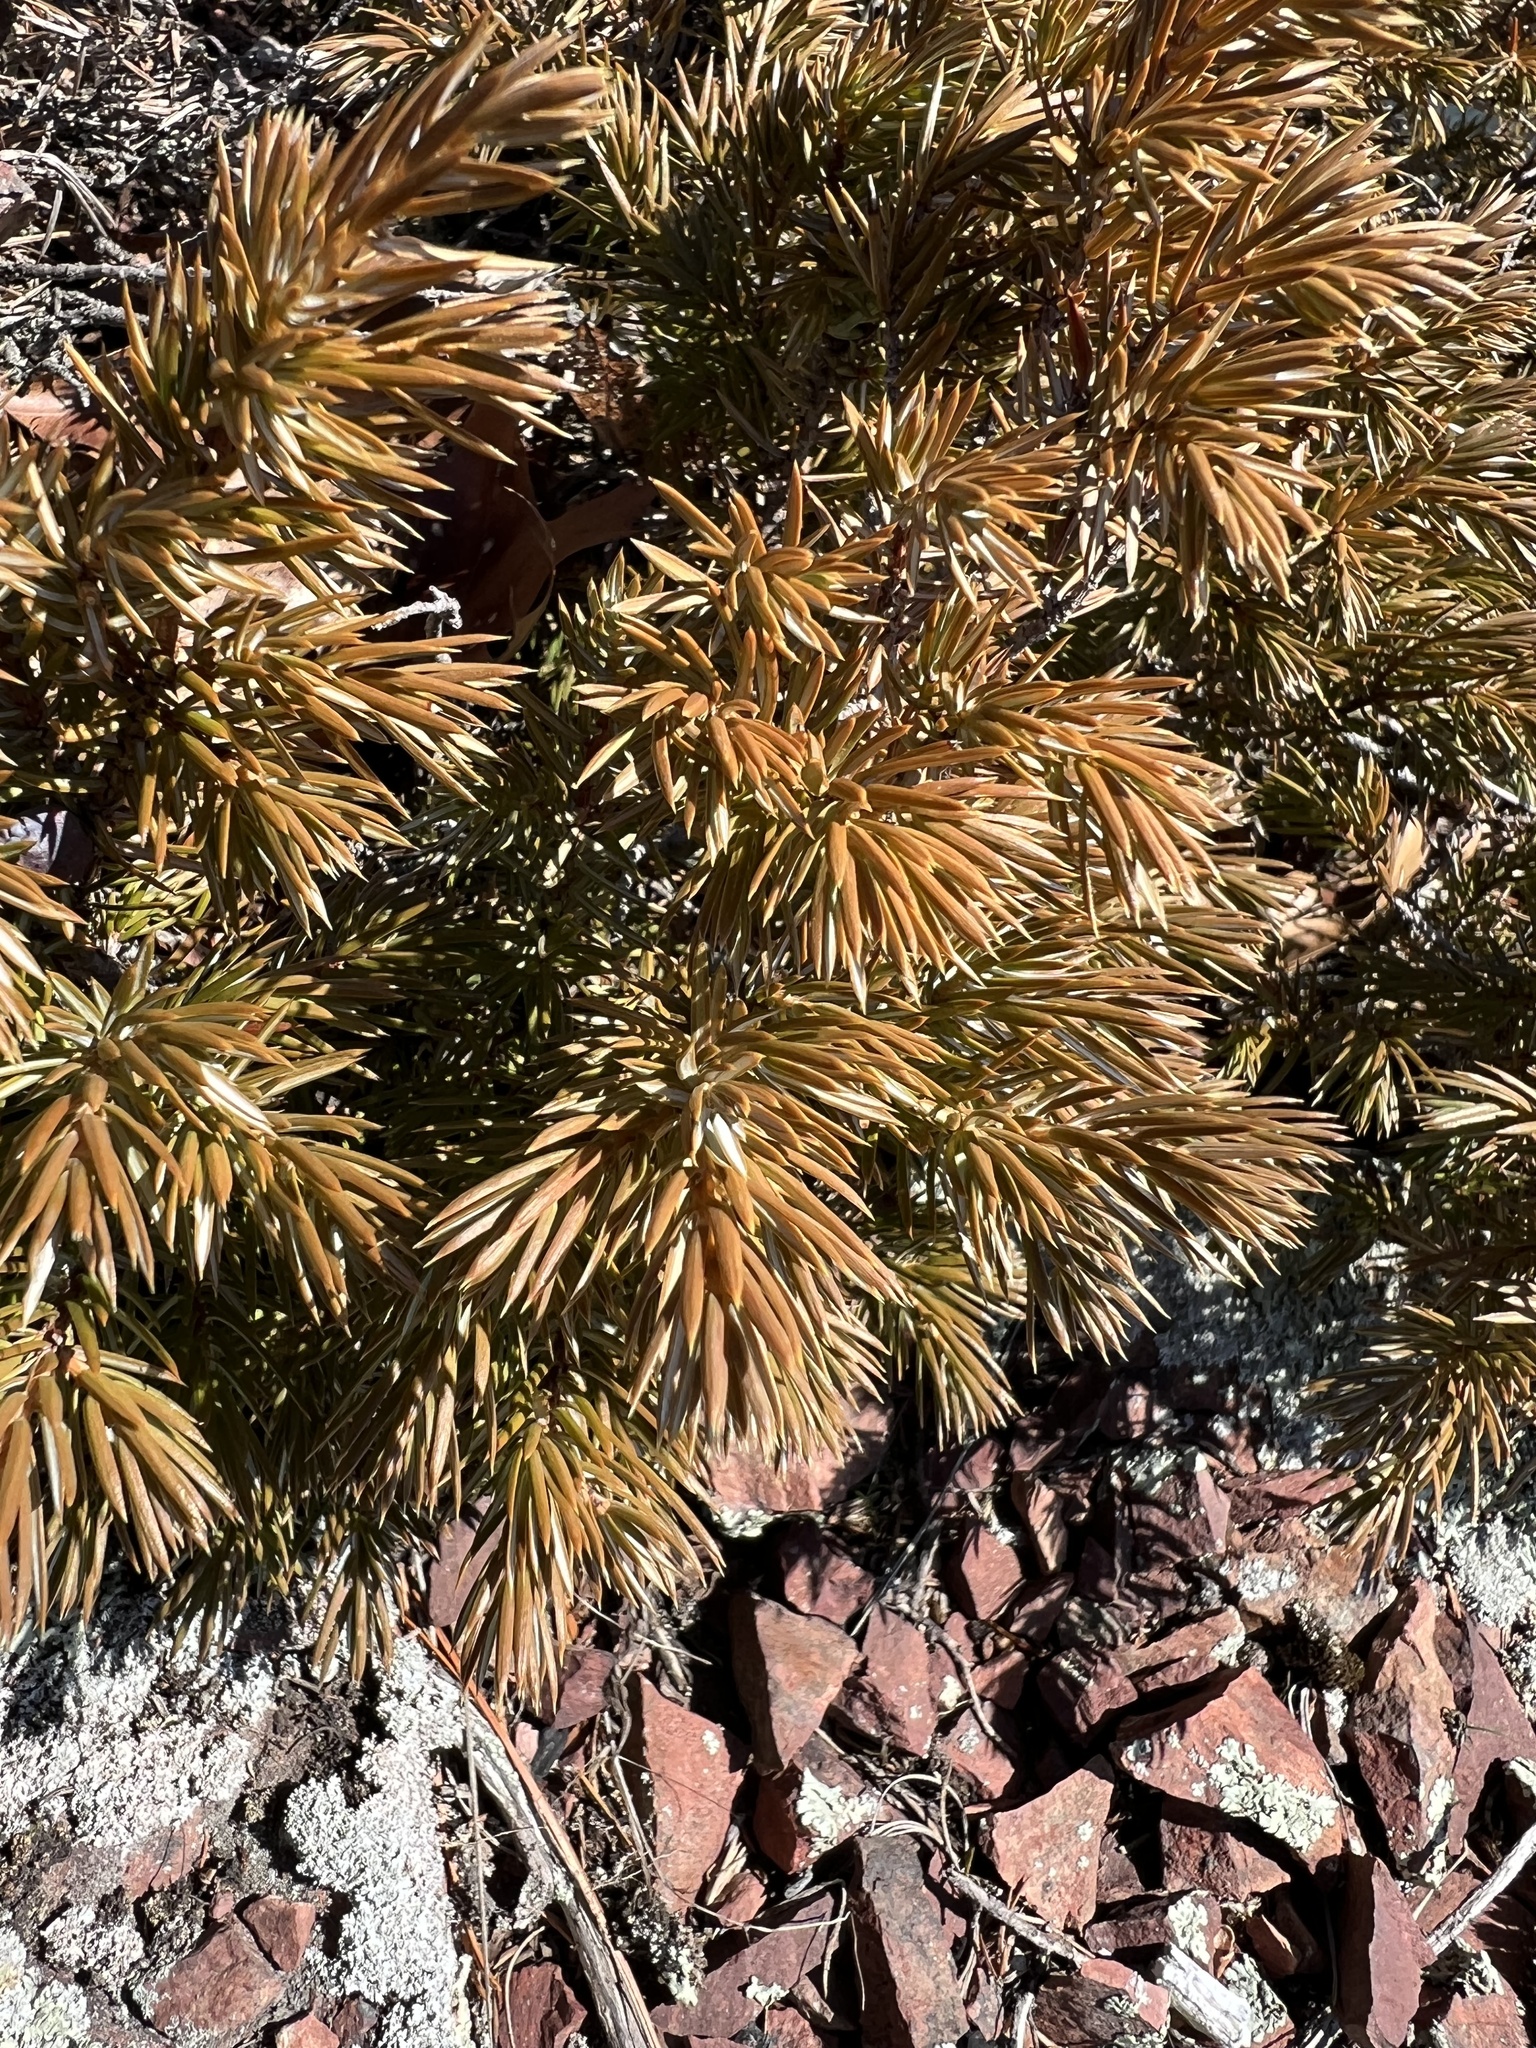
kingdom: Plantae
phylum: Tracheophyta
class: Pinopsida
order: Pinales
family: Cupressaceae
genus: Juniperus
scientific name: Juniperus communis
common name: Common juniper
